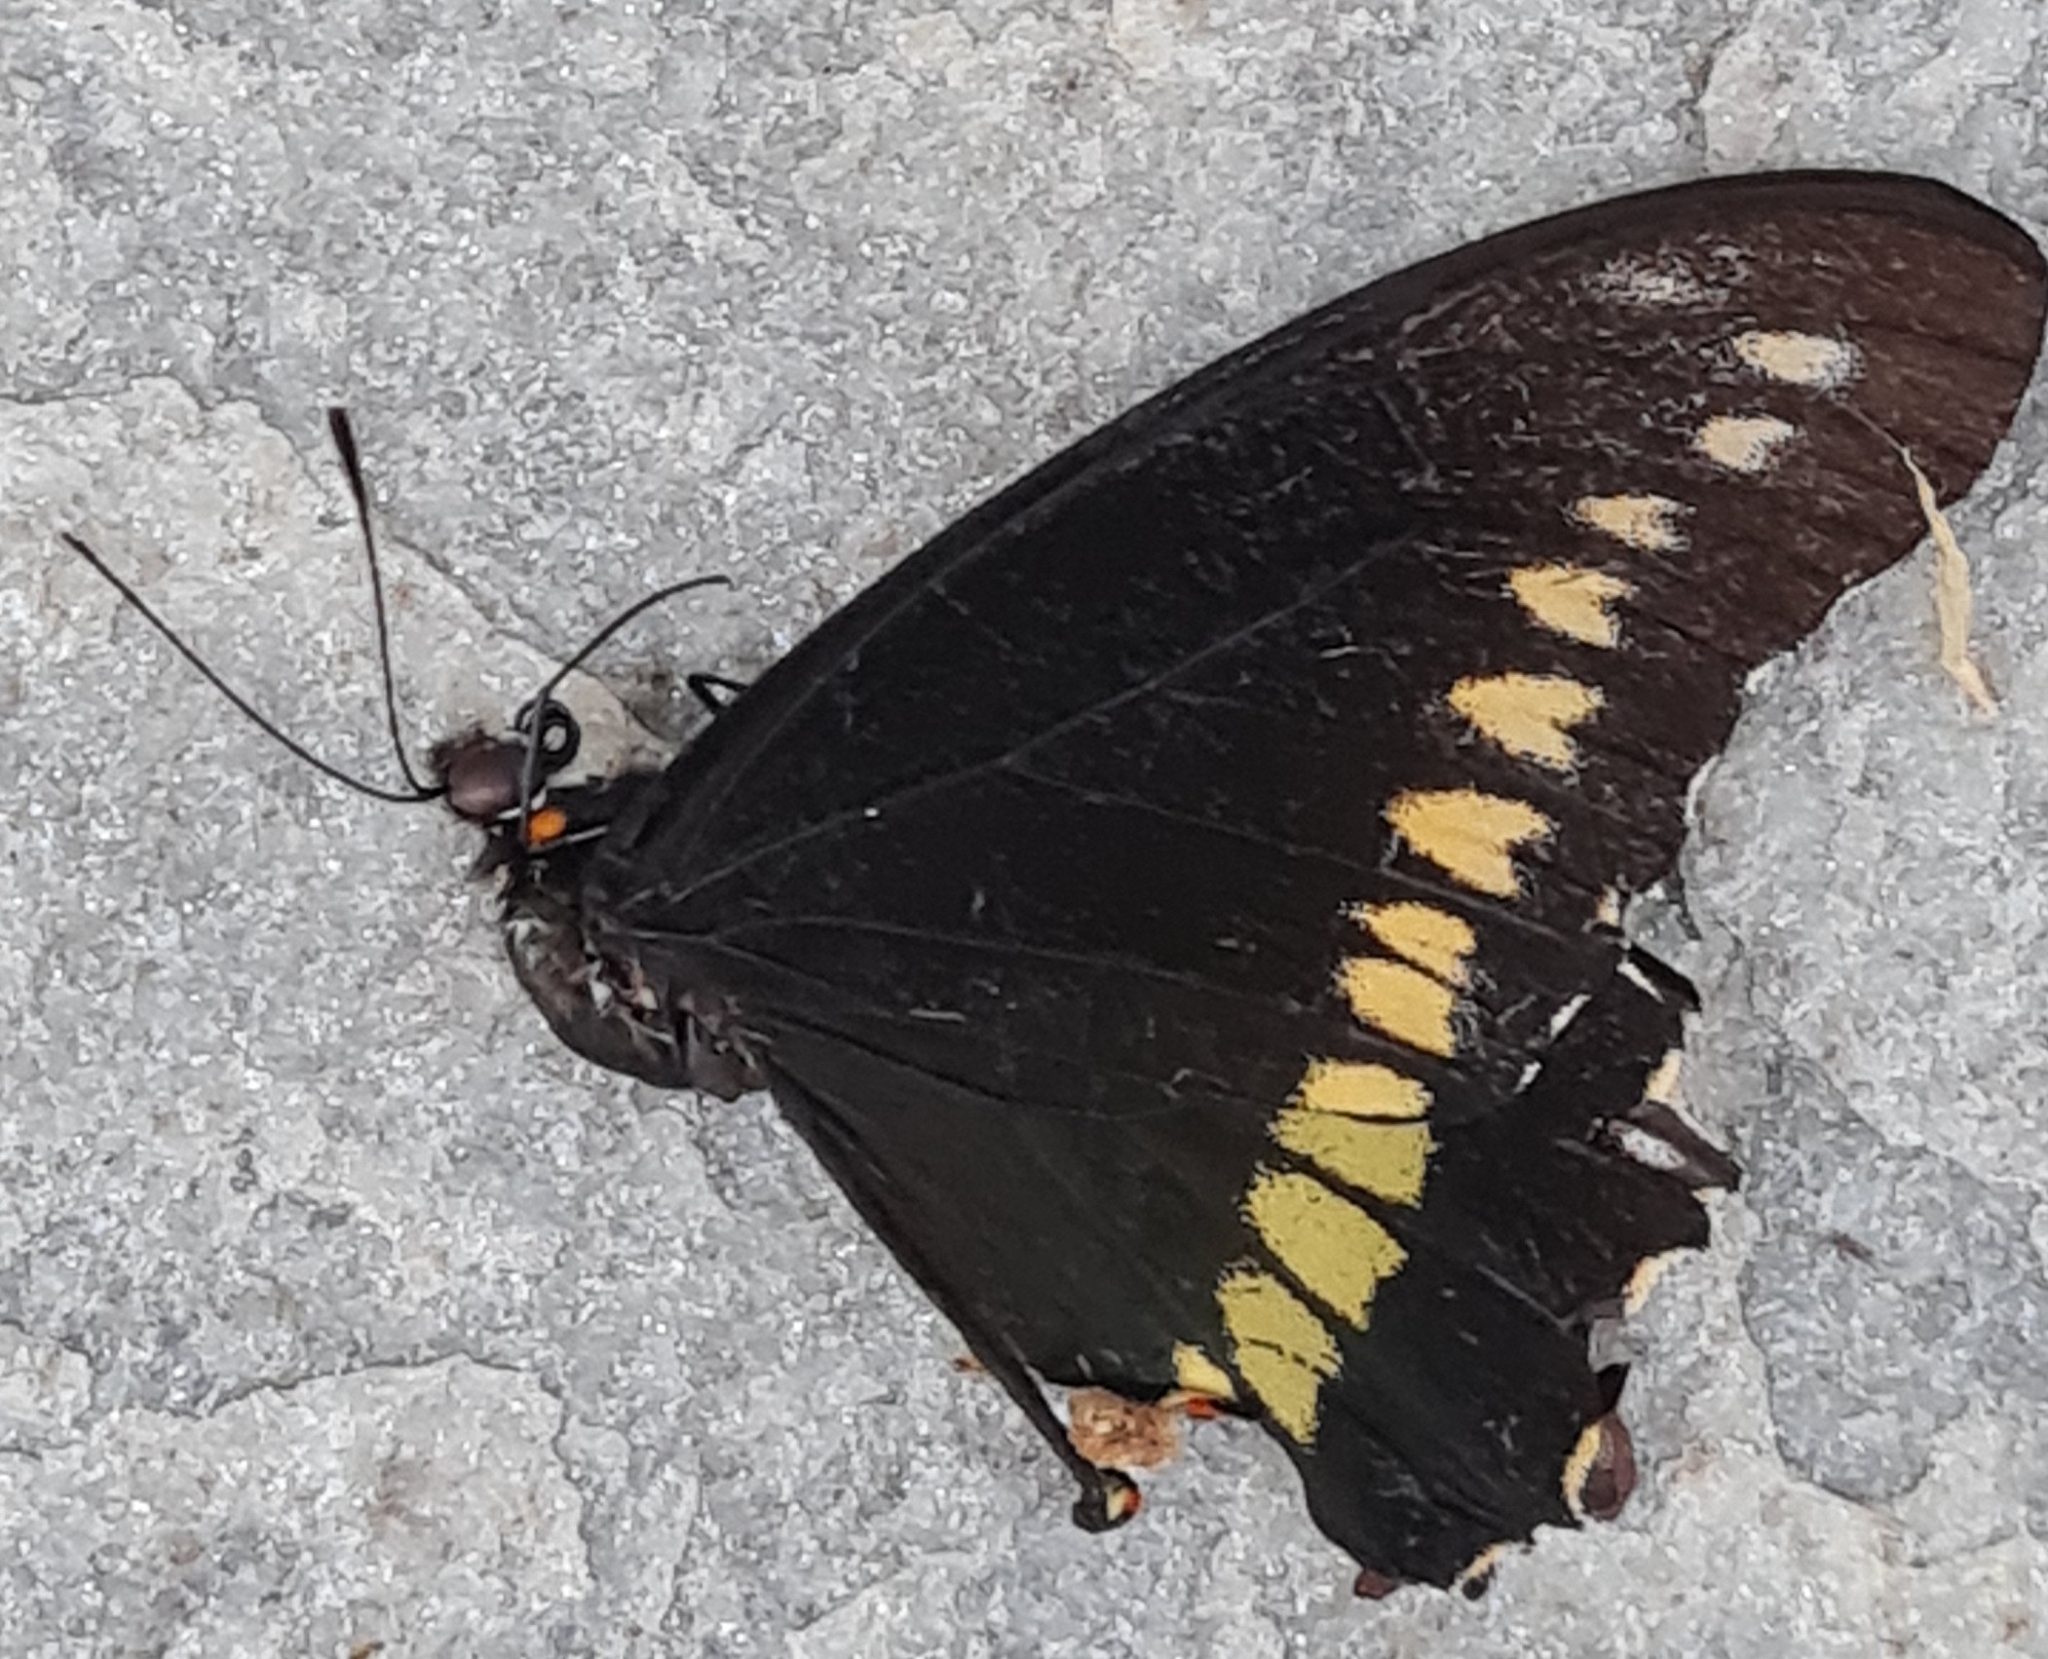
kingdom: Animalia
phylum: Arthropoda
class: Insecta
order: Lepidoptera
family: Papilionidae
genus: Battus
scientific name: Battus polydamas
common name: Polydamas swallowtail
